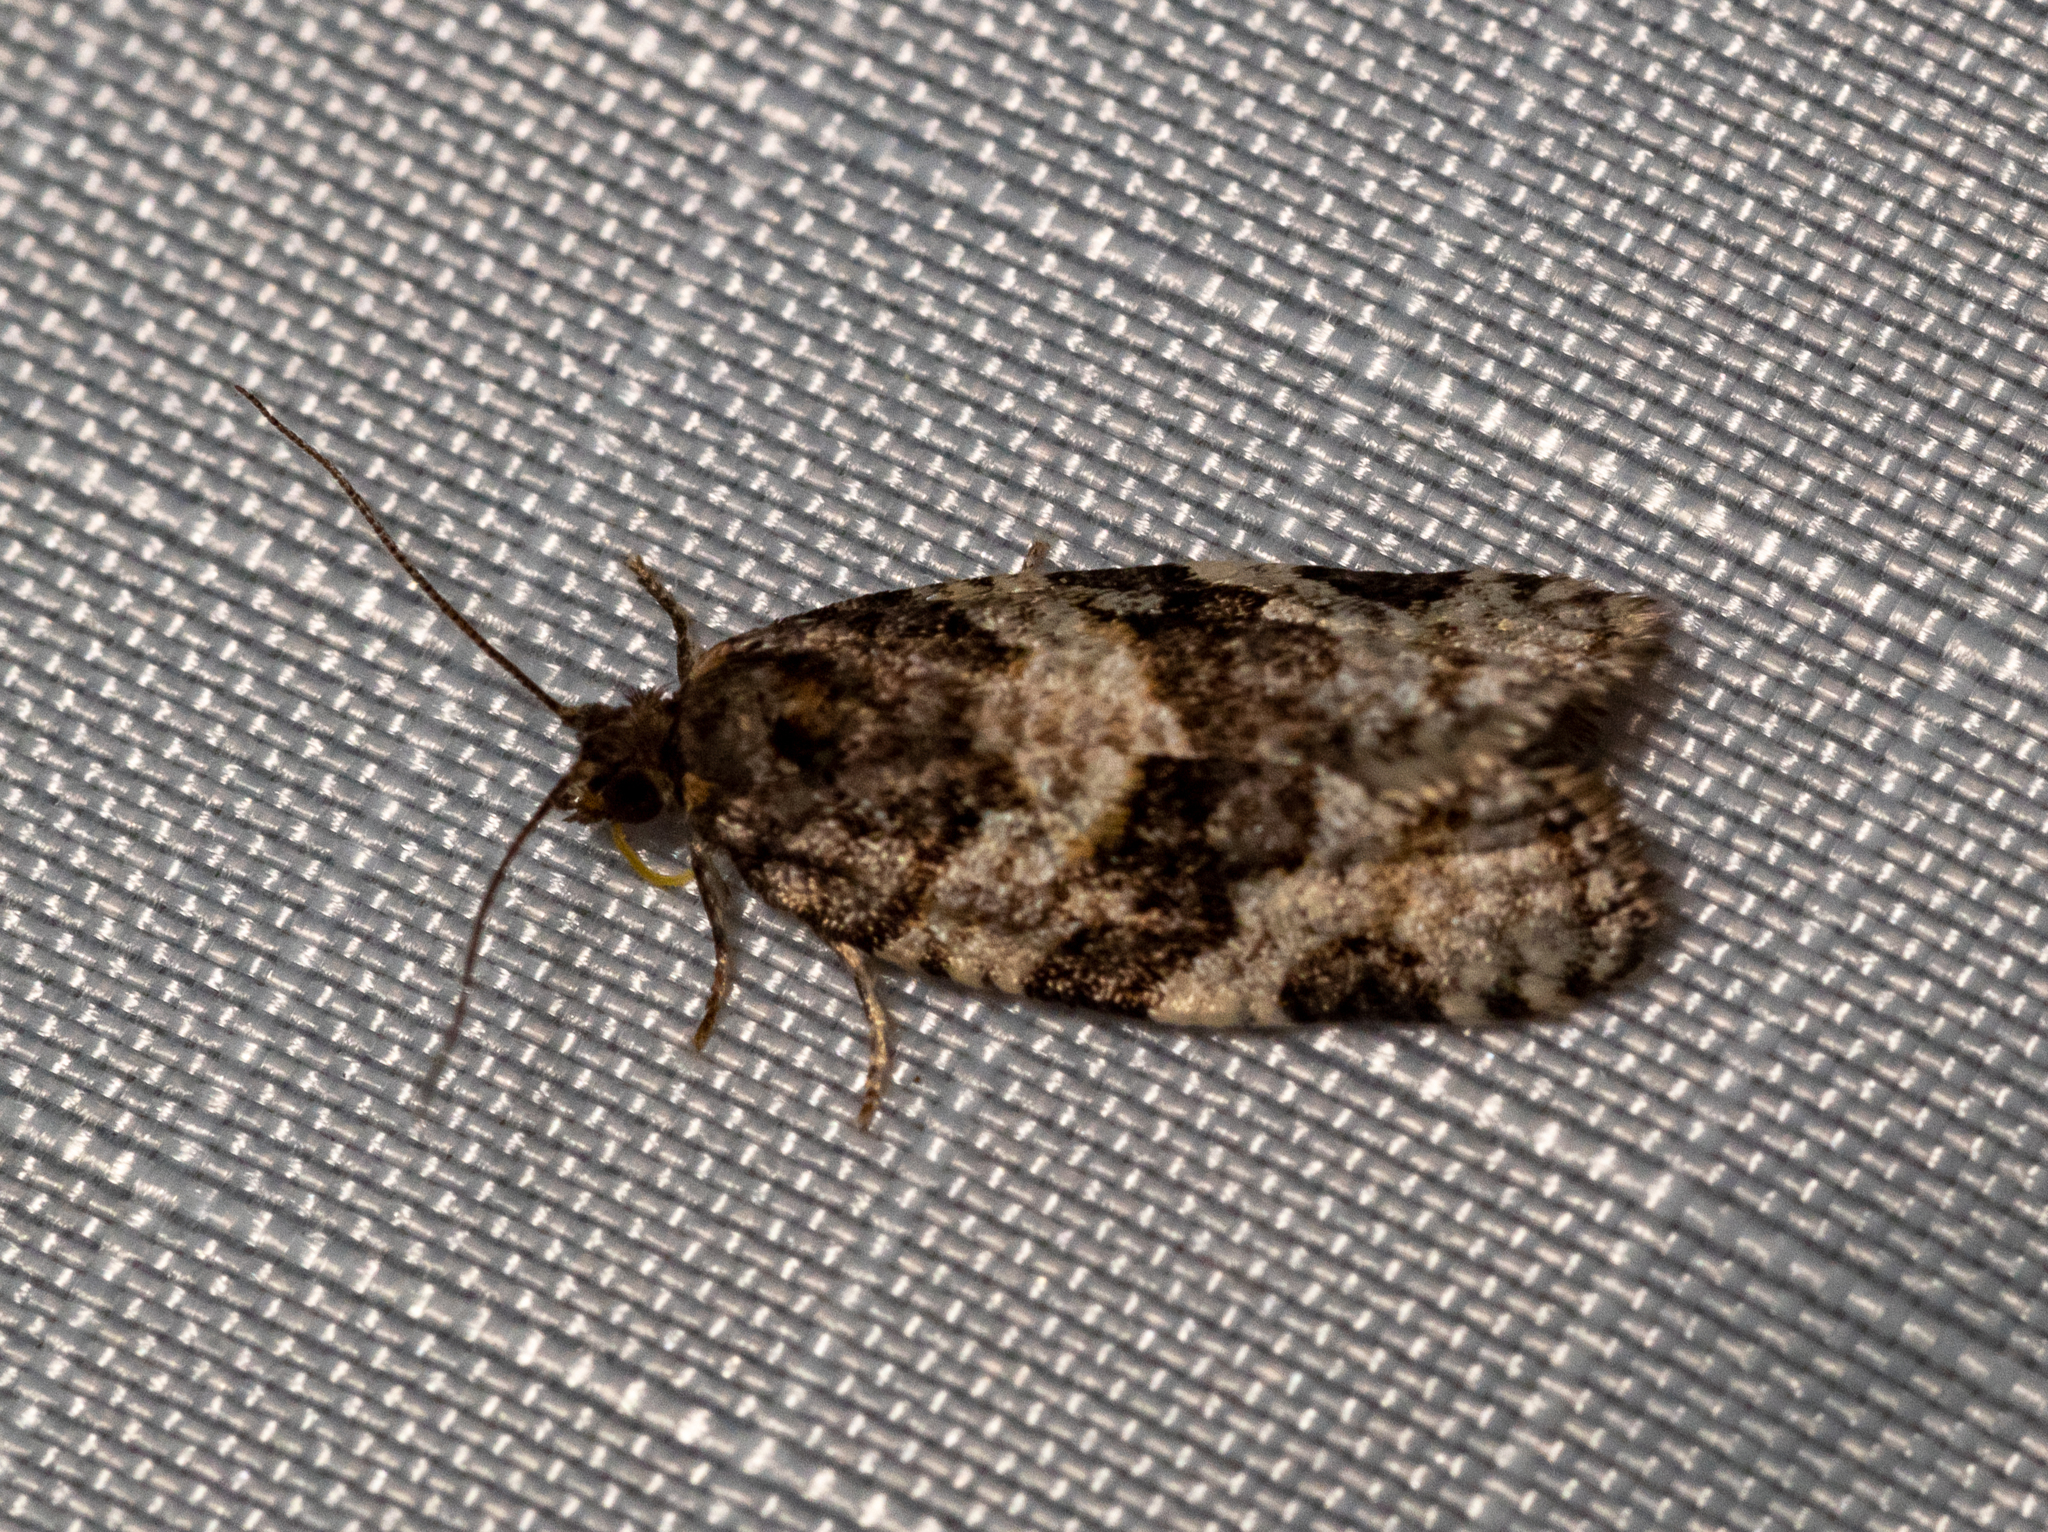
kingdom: Animalia
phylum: Arthropoda
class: Insecta
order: Lepidoptera
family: Tortricidae
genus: Argyrotaenia
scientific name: Argyrotaenia occultana
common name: Fall spruce needle moth
